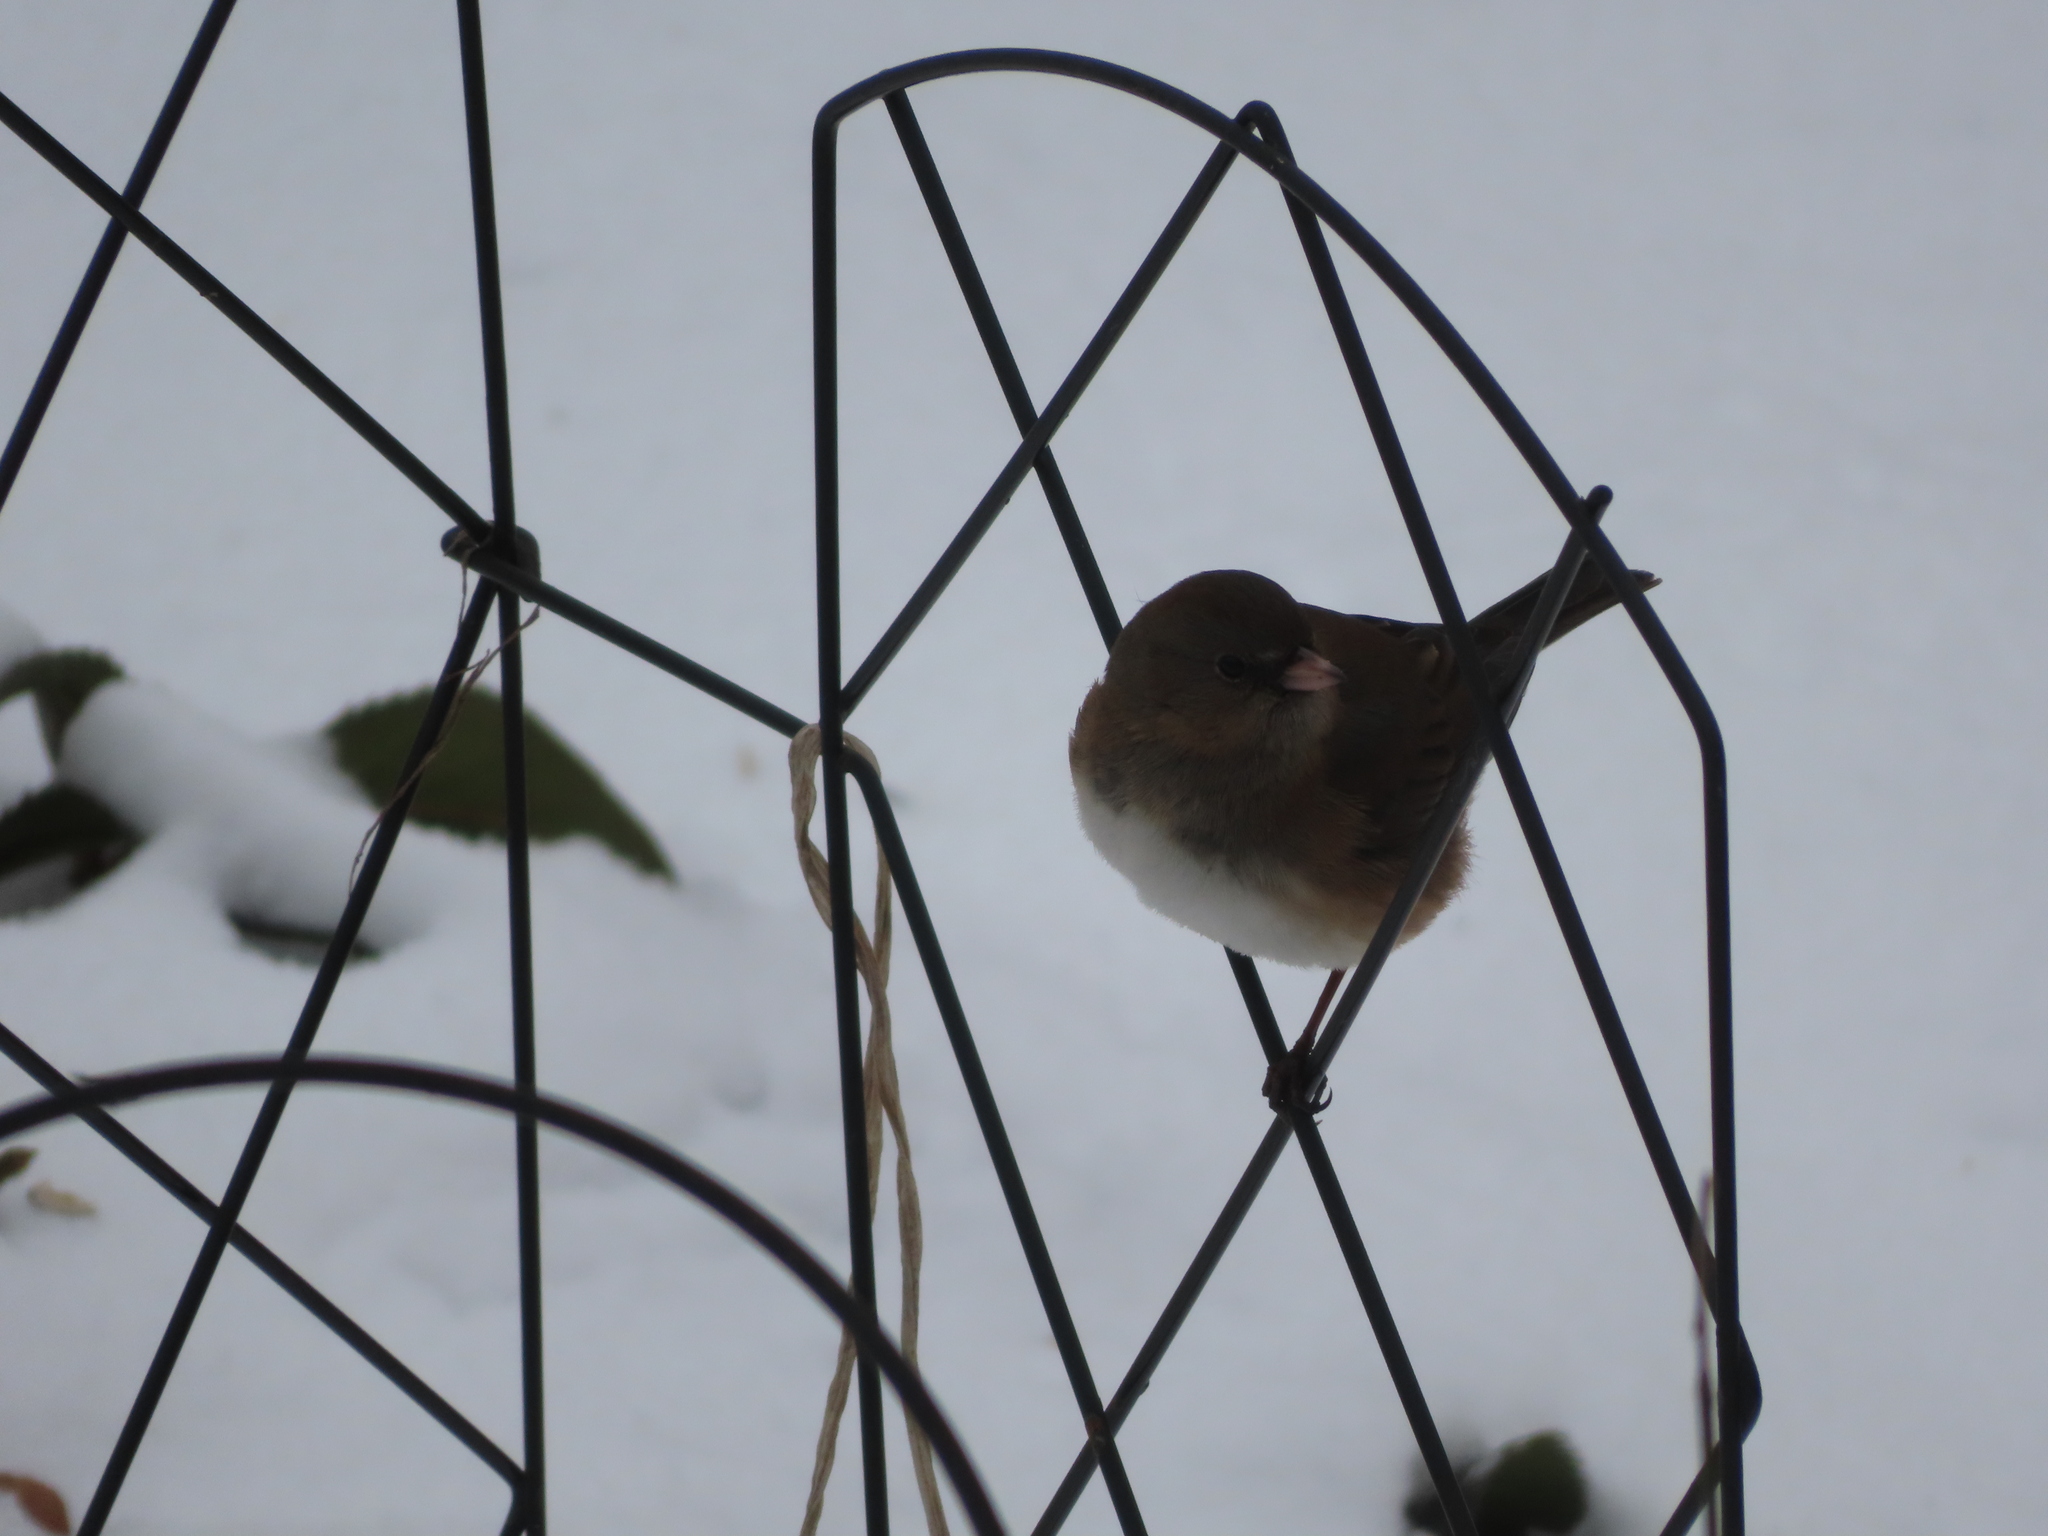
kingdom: Animalia
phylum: Chordata
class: Aves
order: Passeriformes
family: Passerellidae
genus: Junco
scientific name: Junco hyemalis
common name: Dark-eyed junco
